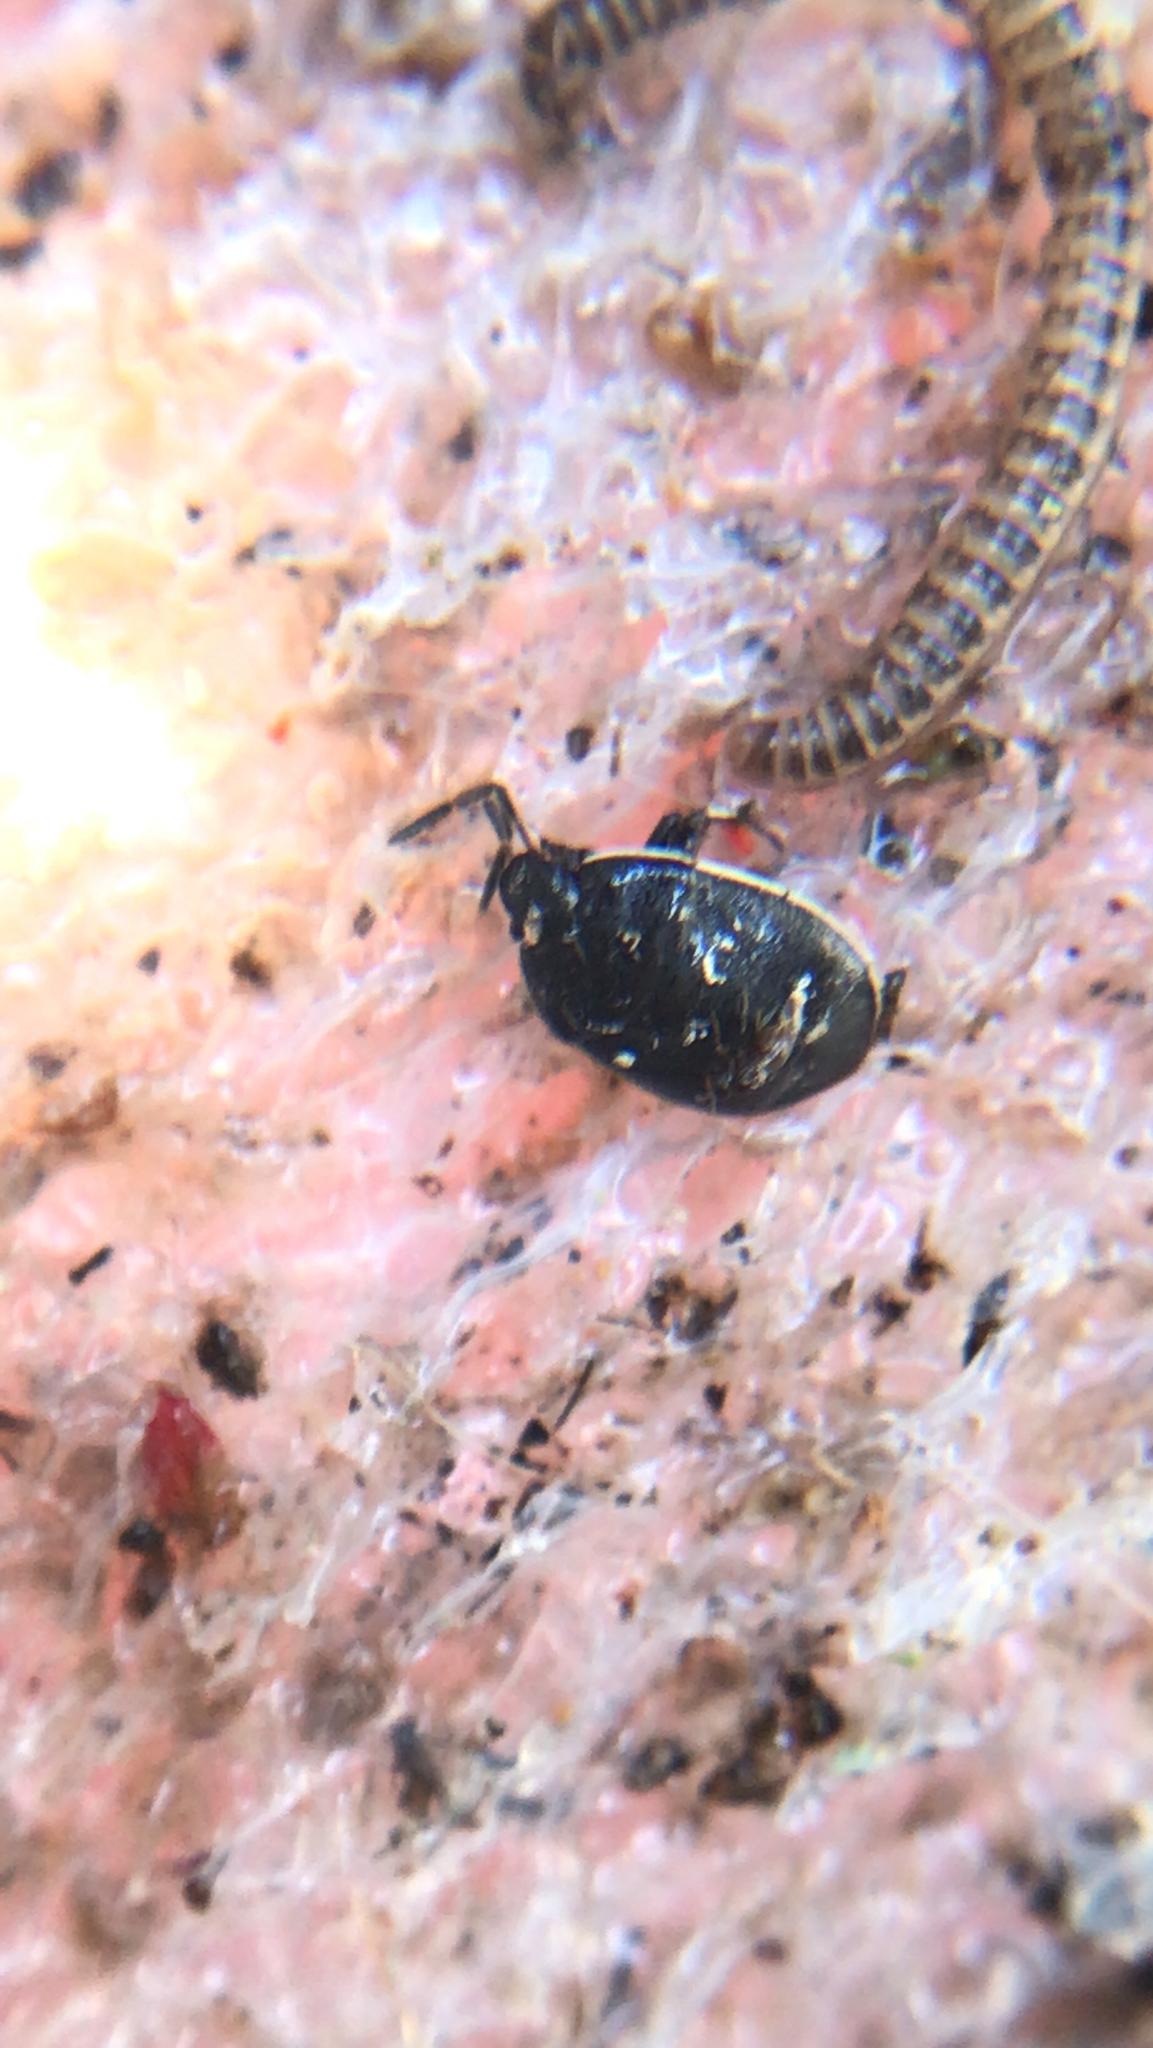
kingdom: Animalia
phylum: Arthropoda
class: Insecta
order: Hemiptera
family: Cydnidae
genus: Sehirus
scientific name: Sehirus cinctus
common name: White-margined burrower bug
